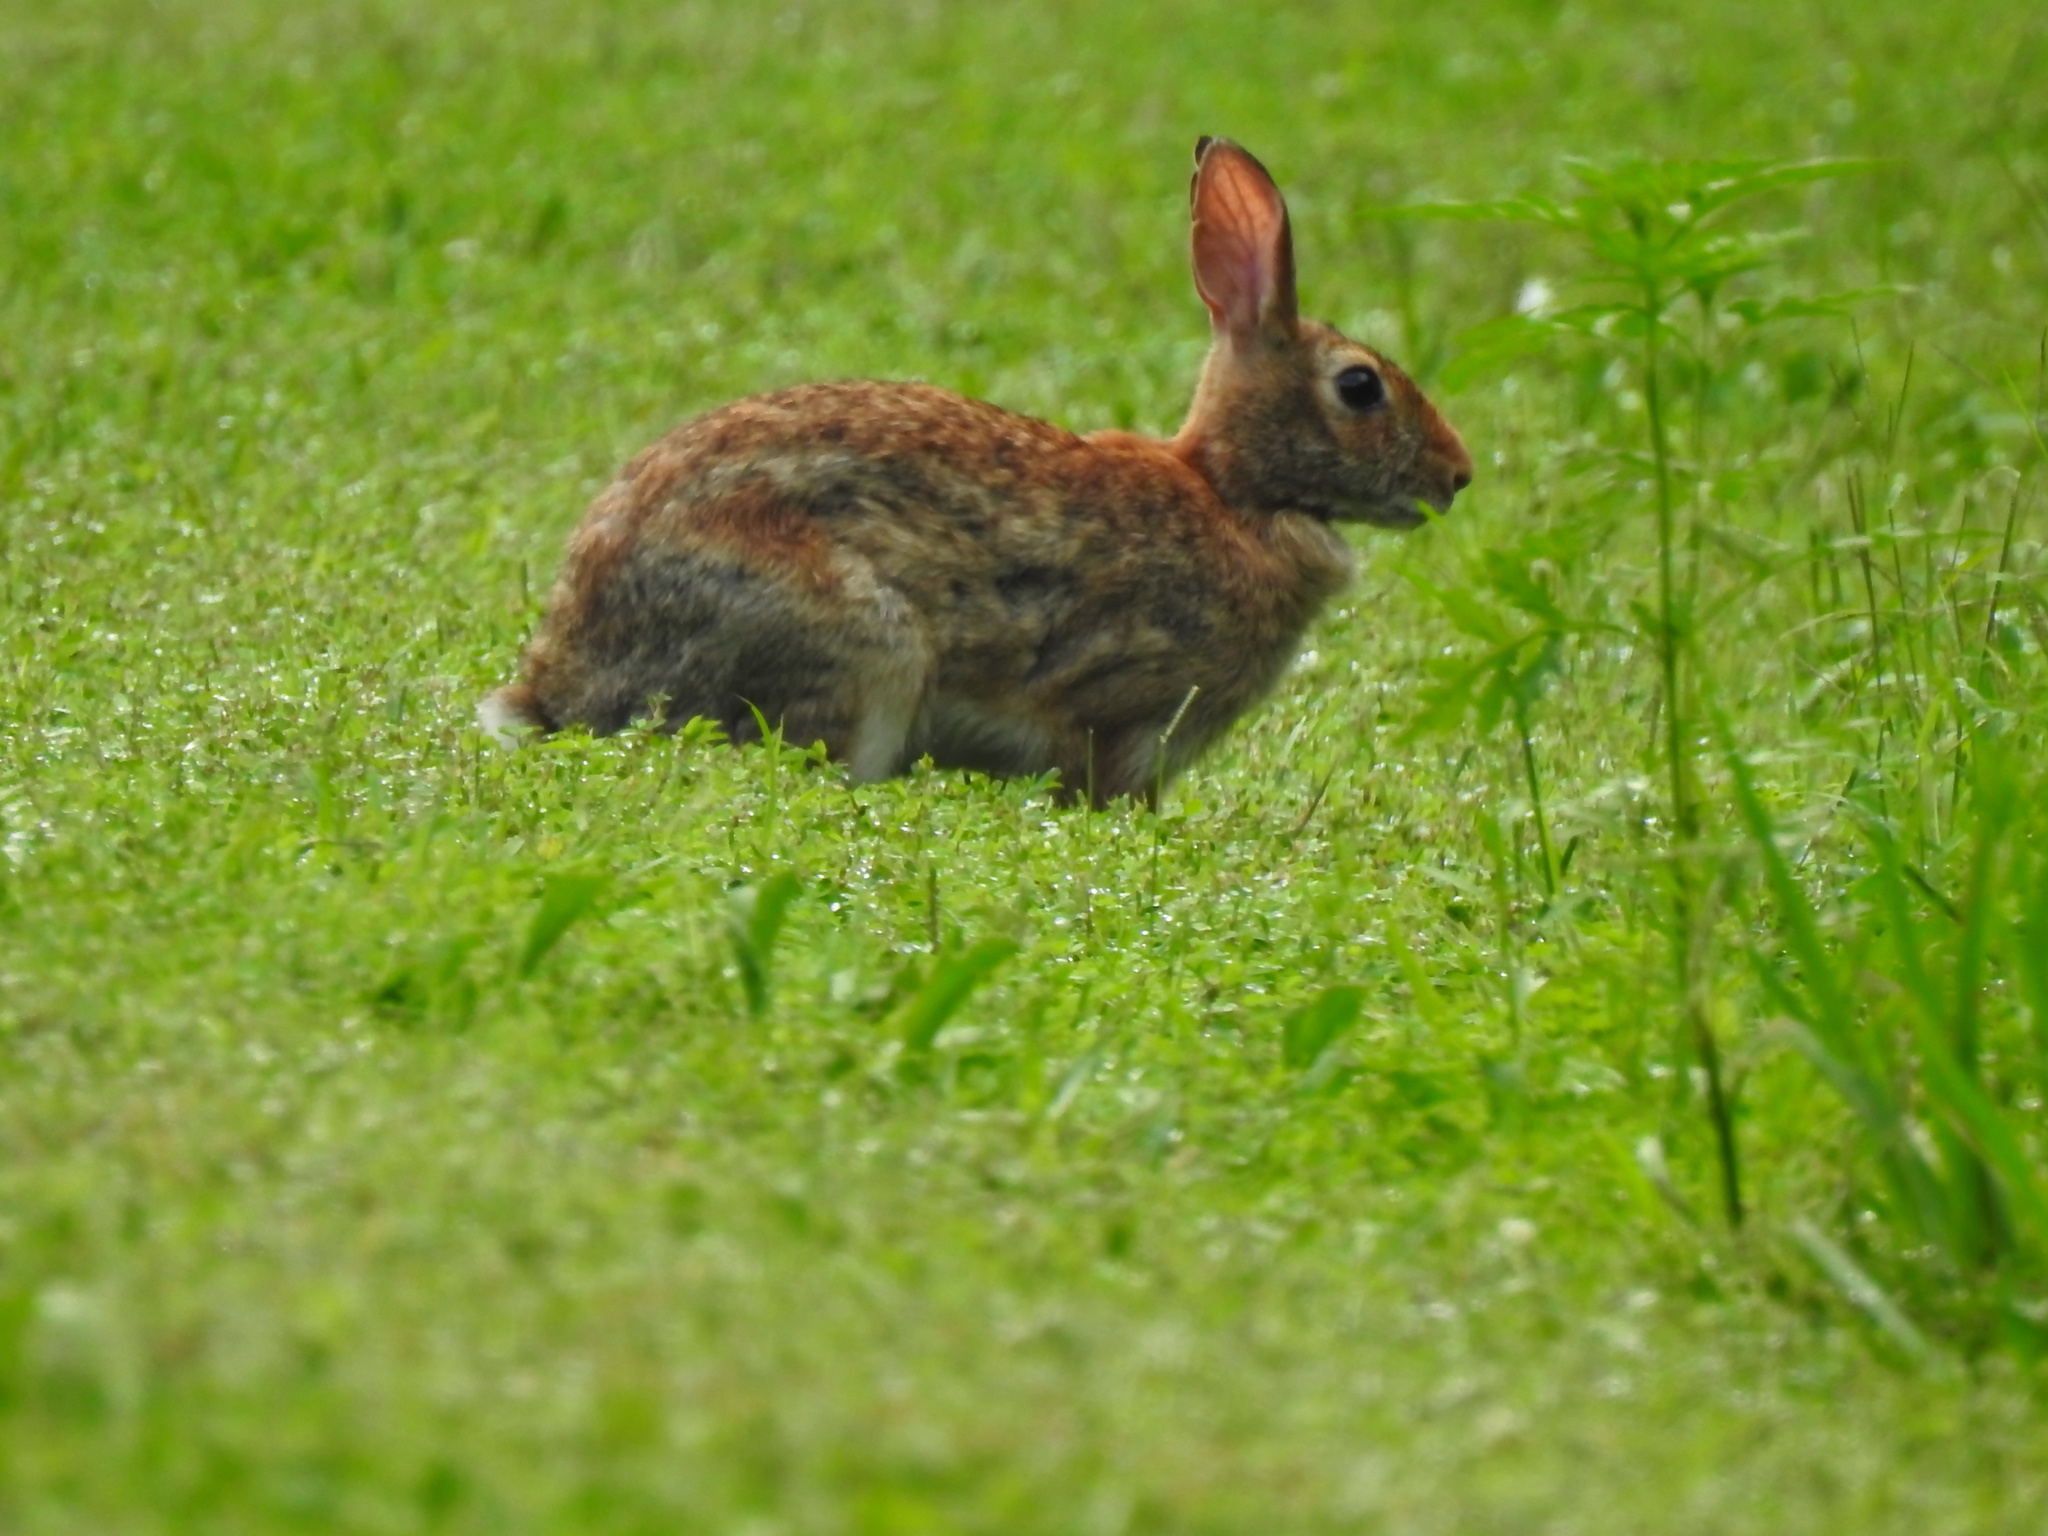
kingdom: Animalia
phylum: Chordata
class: Mammalia
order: Lagomorpha
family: Leporidae
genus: Sylvilagus
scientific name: Sylvilagus floridanus
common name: Eastern cottontail
